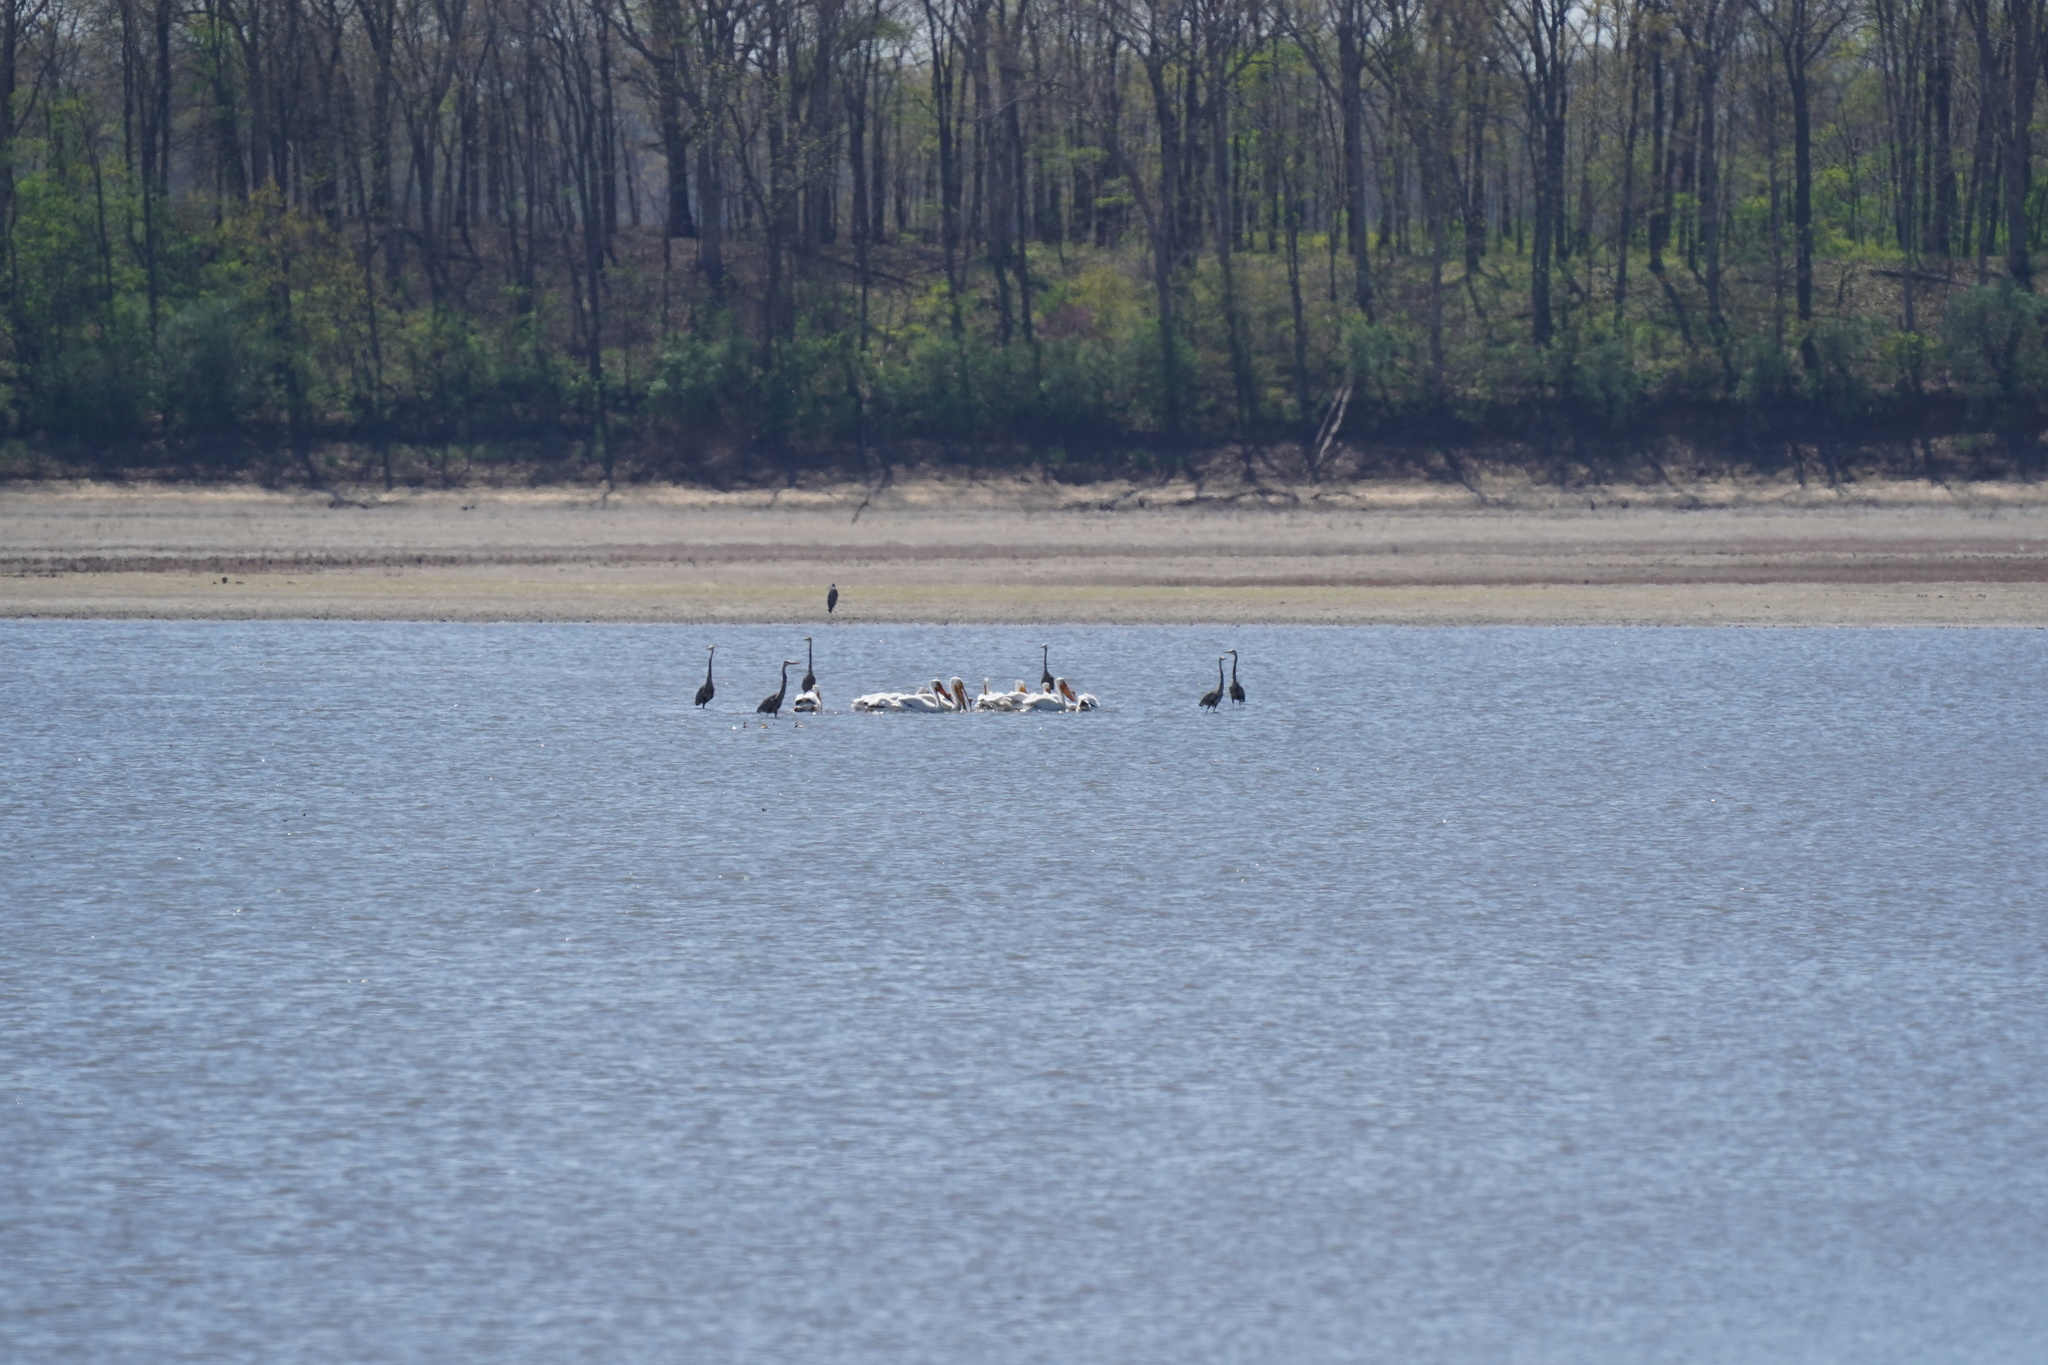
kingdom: Animalia
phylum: Chordata
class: Aves
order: Pelecaniformes
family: Ardeidae
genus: Ardea
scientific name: Ardea herodias
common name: Great blue heron
